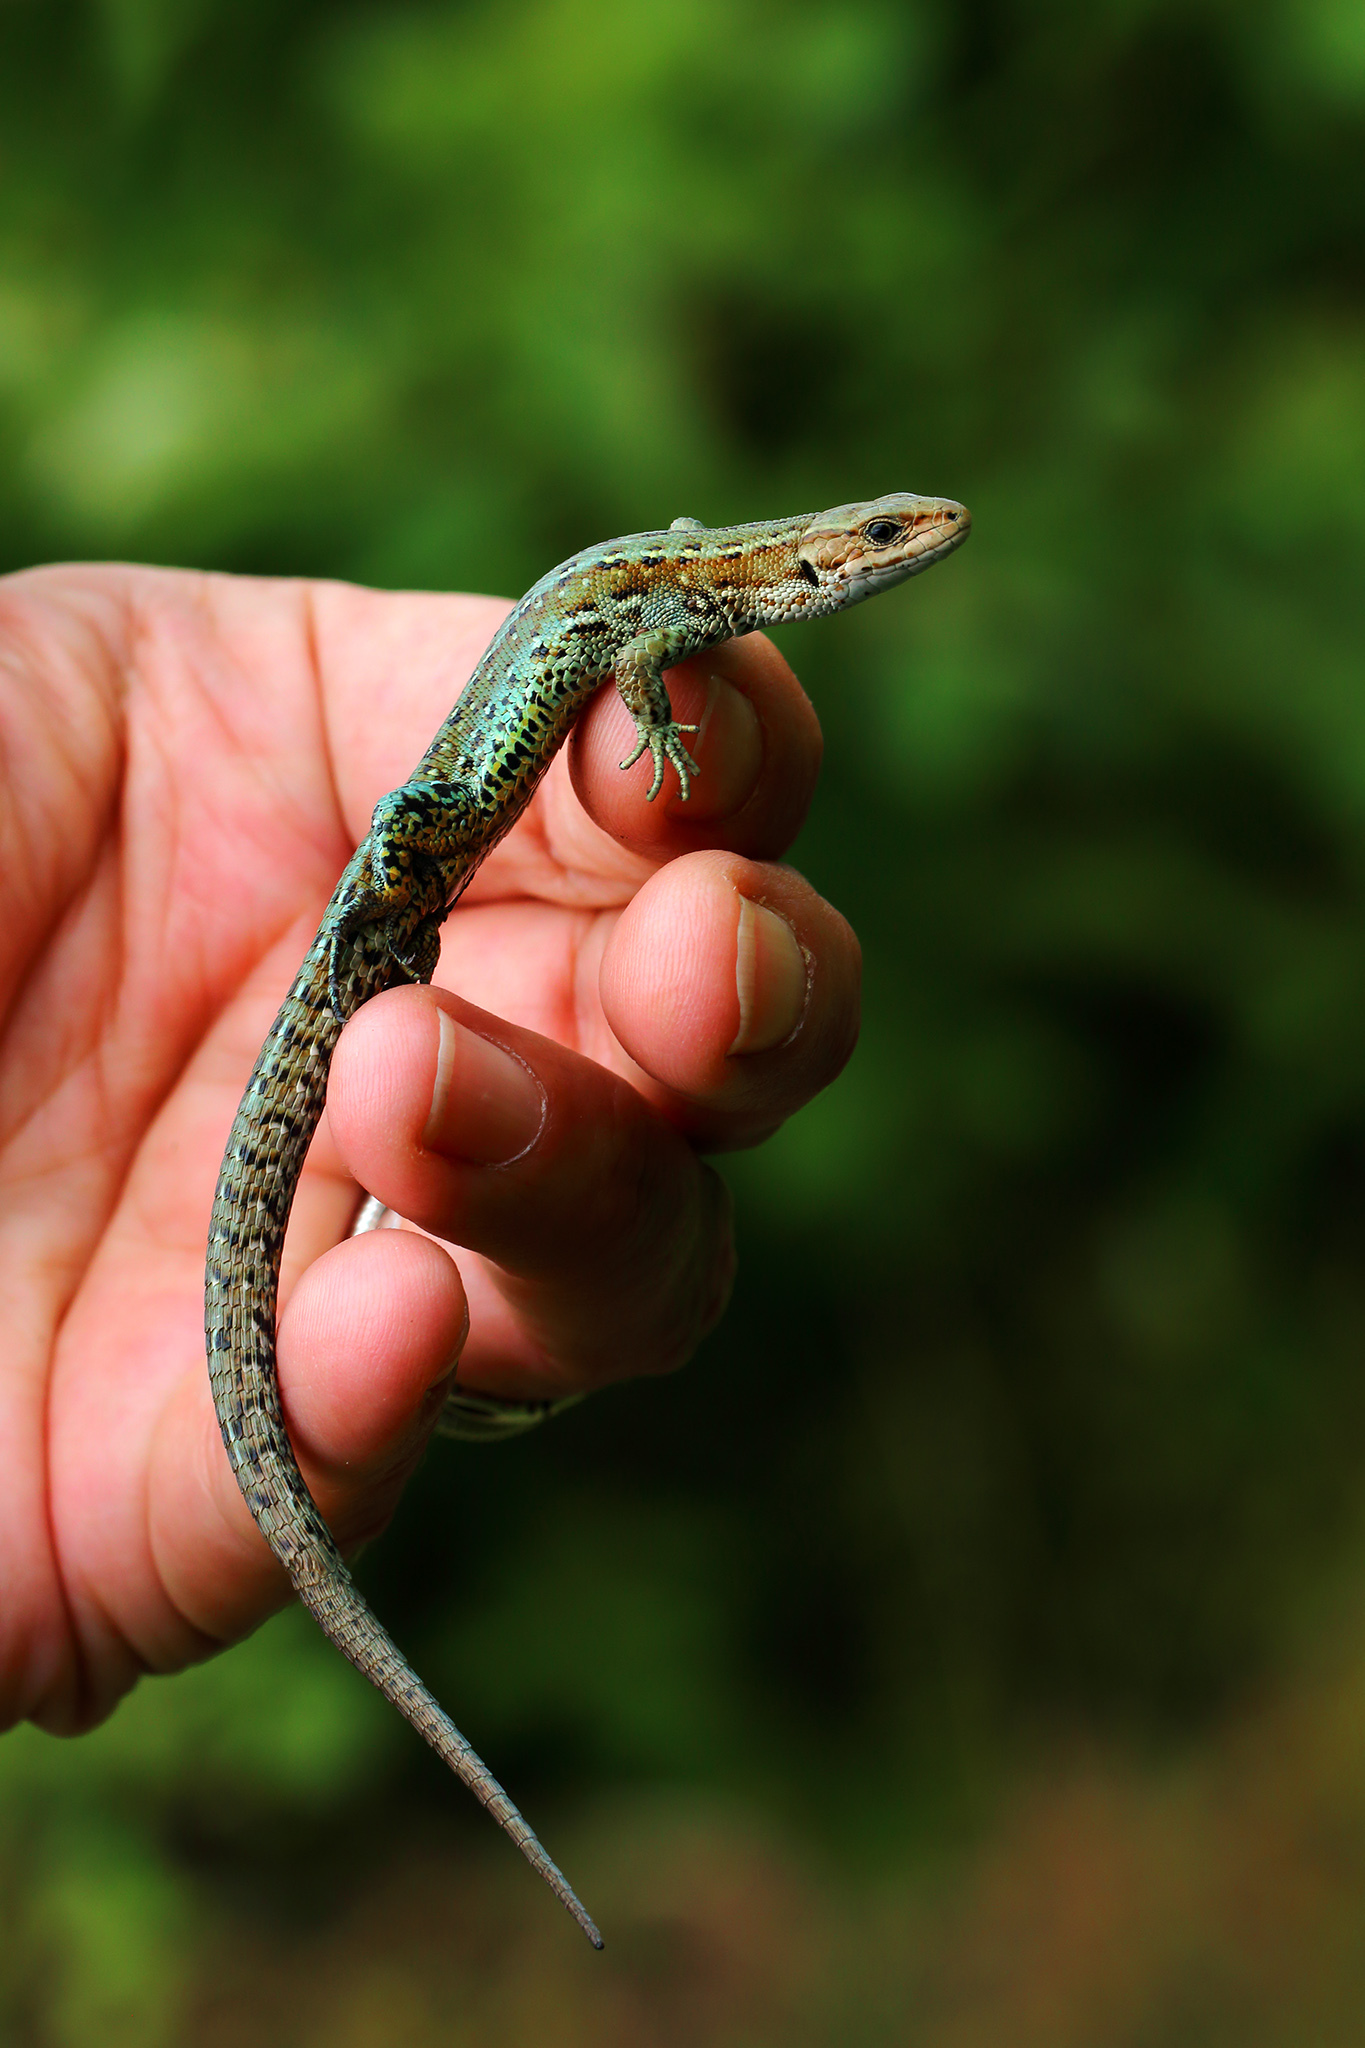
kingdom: Animalia
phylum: Chordata
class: Squamata
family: Lacertidae
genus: Zootoca
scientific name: Zootoca vivipara
